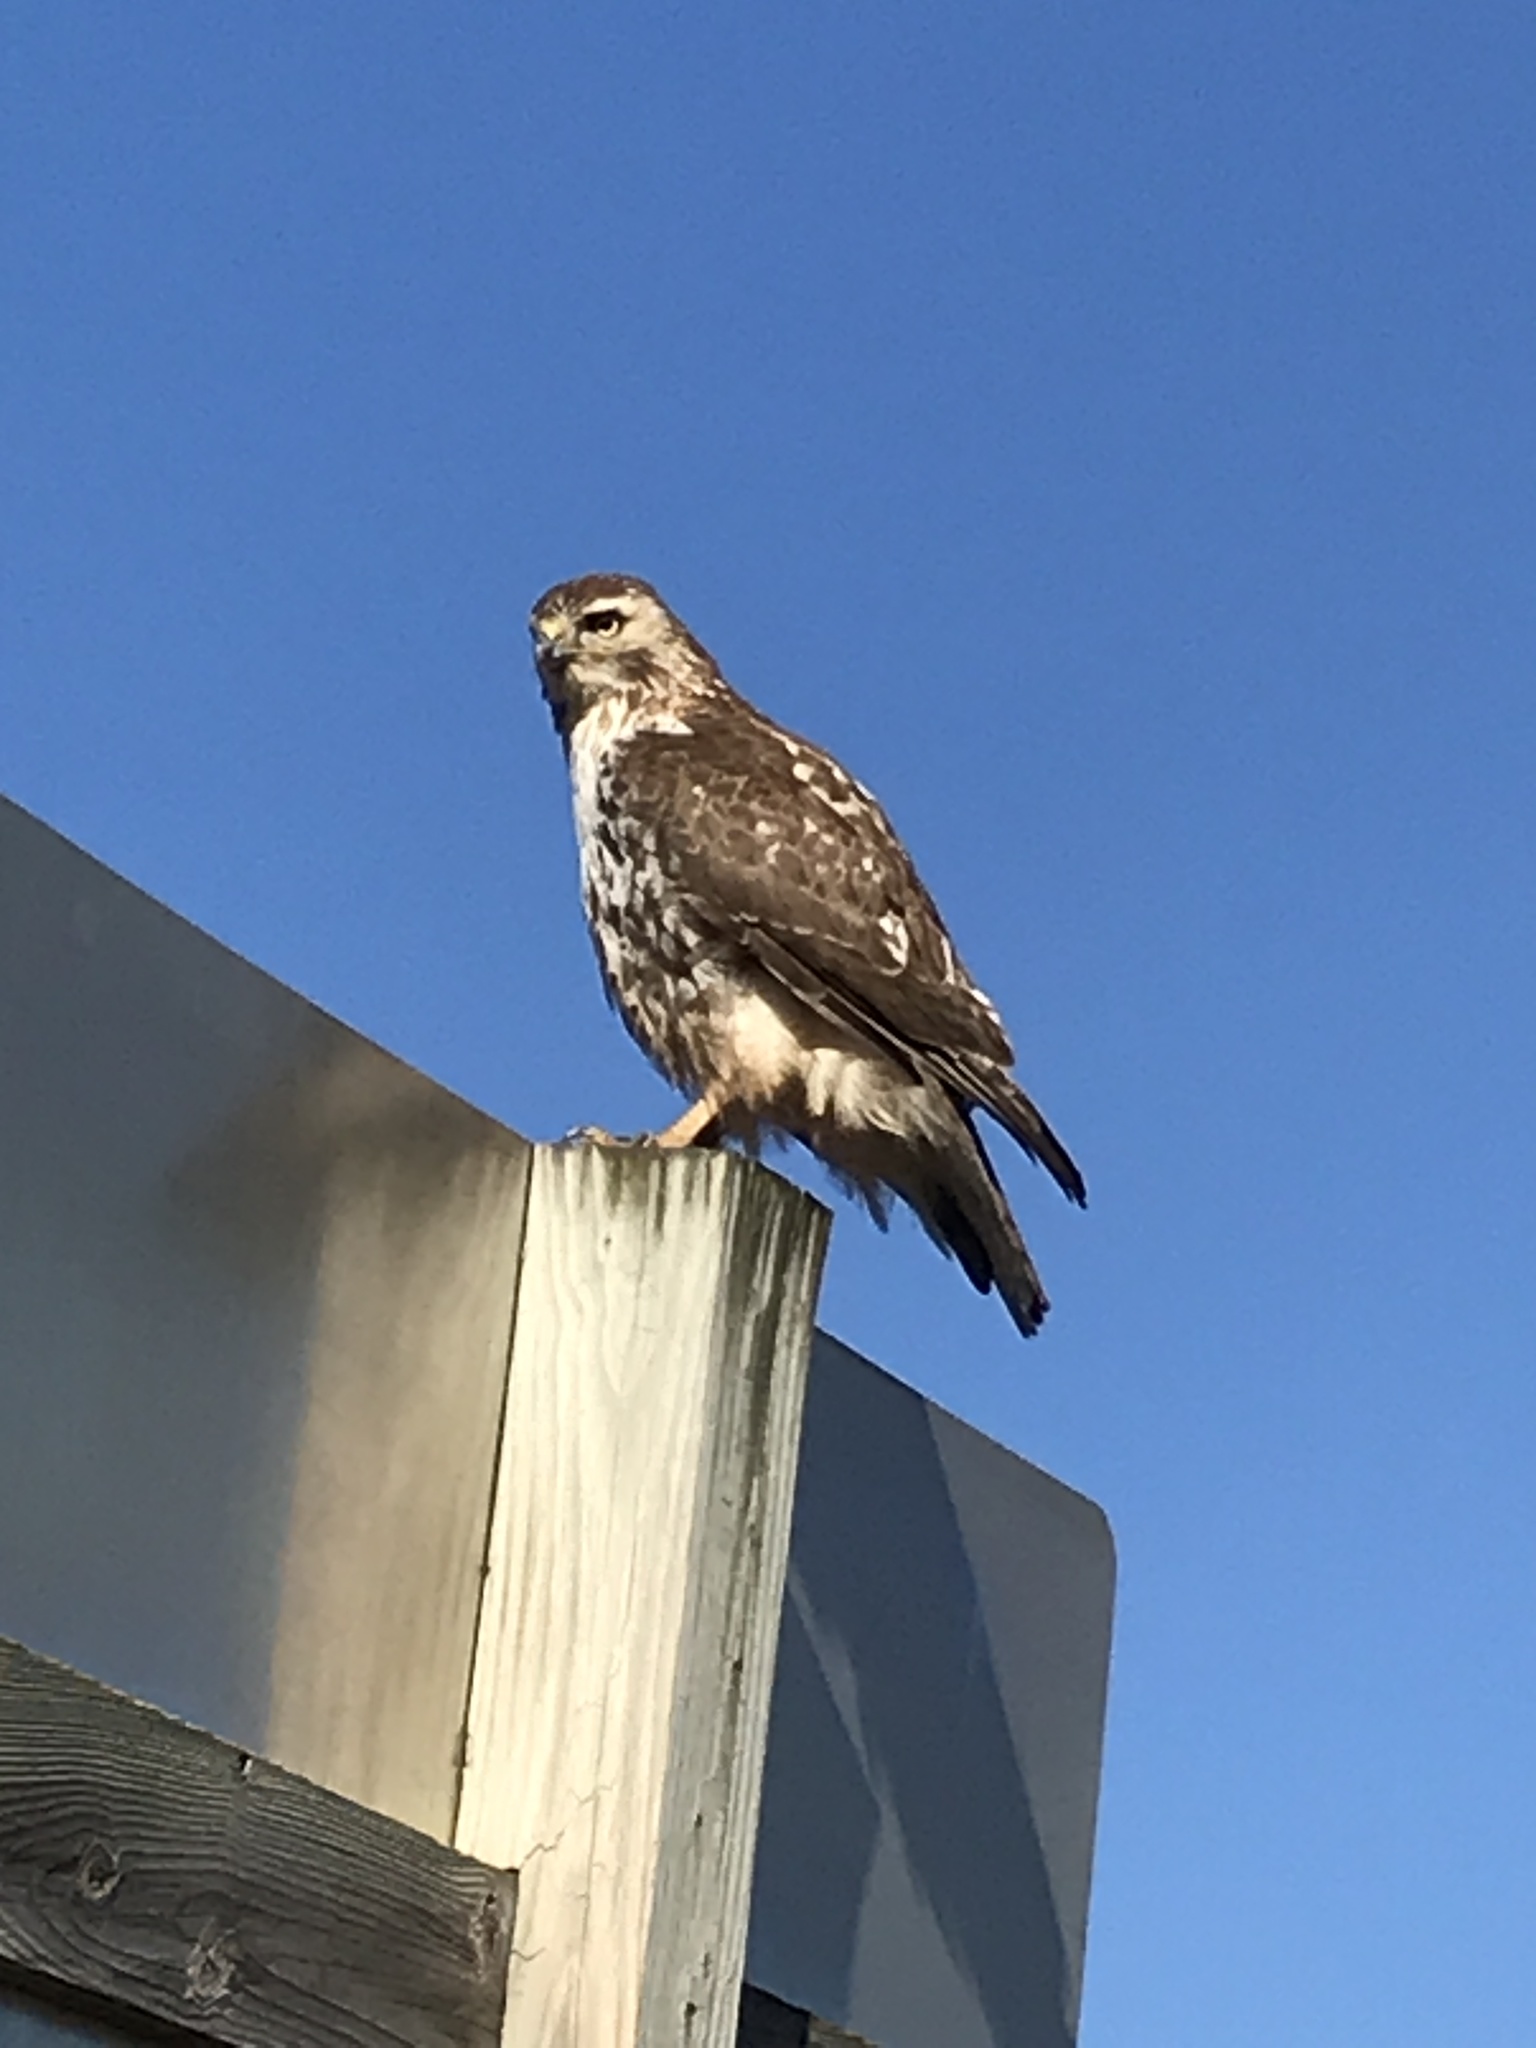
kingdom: Animalia
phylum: Chordata
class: Aves
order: Accipitriformes
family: Accipitridae
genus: Buteo
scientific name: Buteo jamaicensis
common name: Red-tailed hawk
